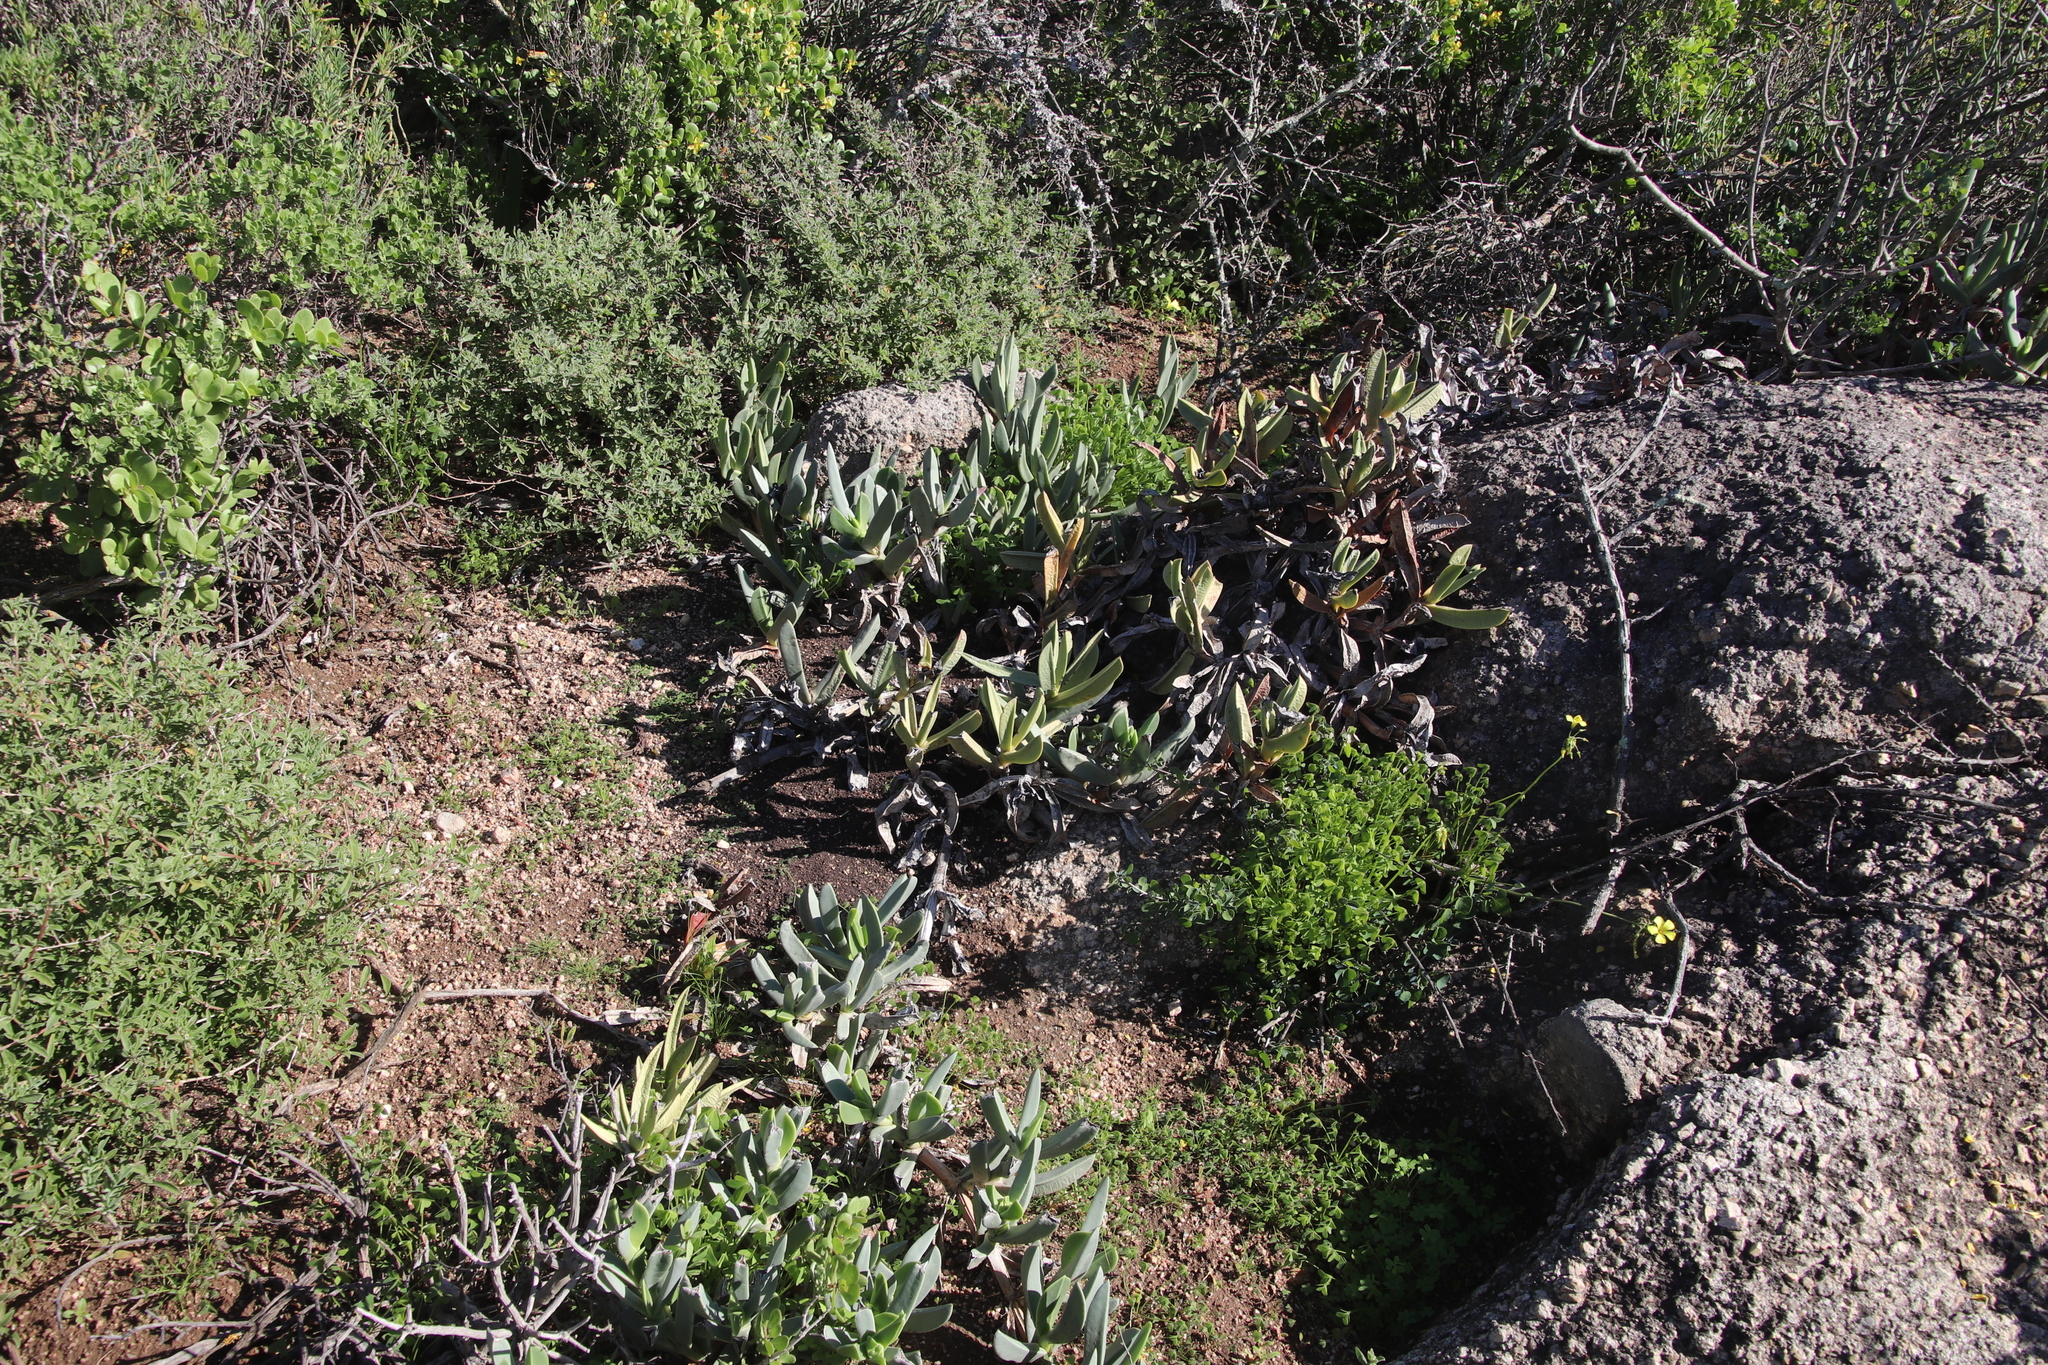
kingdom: Plantae
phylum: Tracheophyta
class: Magnoliopsida
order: Oxalidales
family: Oxalidaceae
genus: Oxalis
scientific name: Oxalis pes-caprae
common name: Bermuda-buttercup
